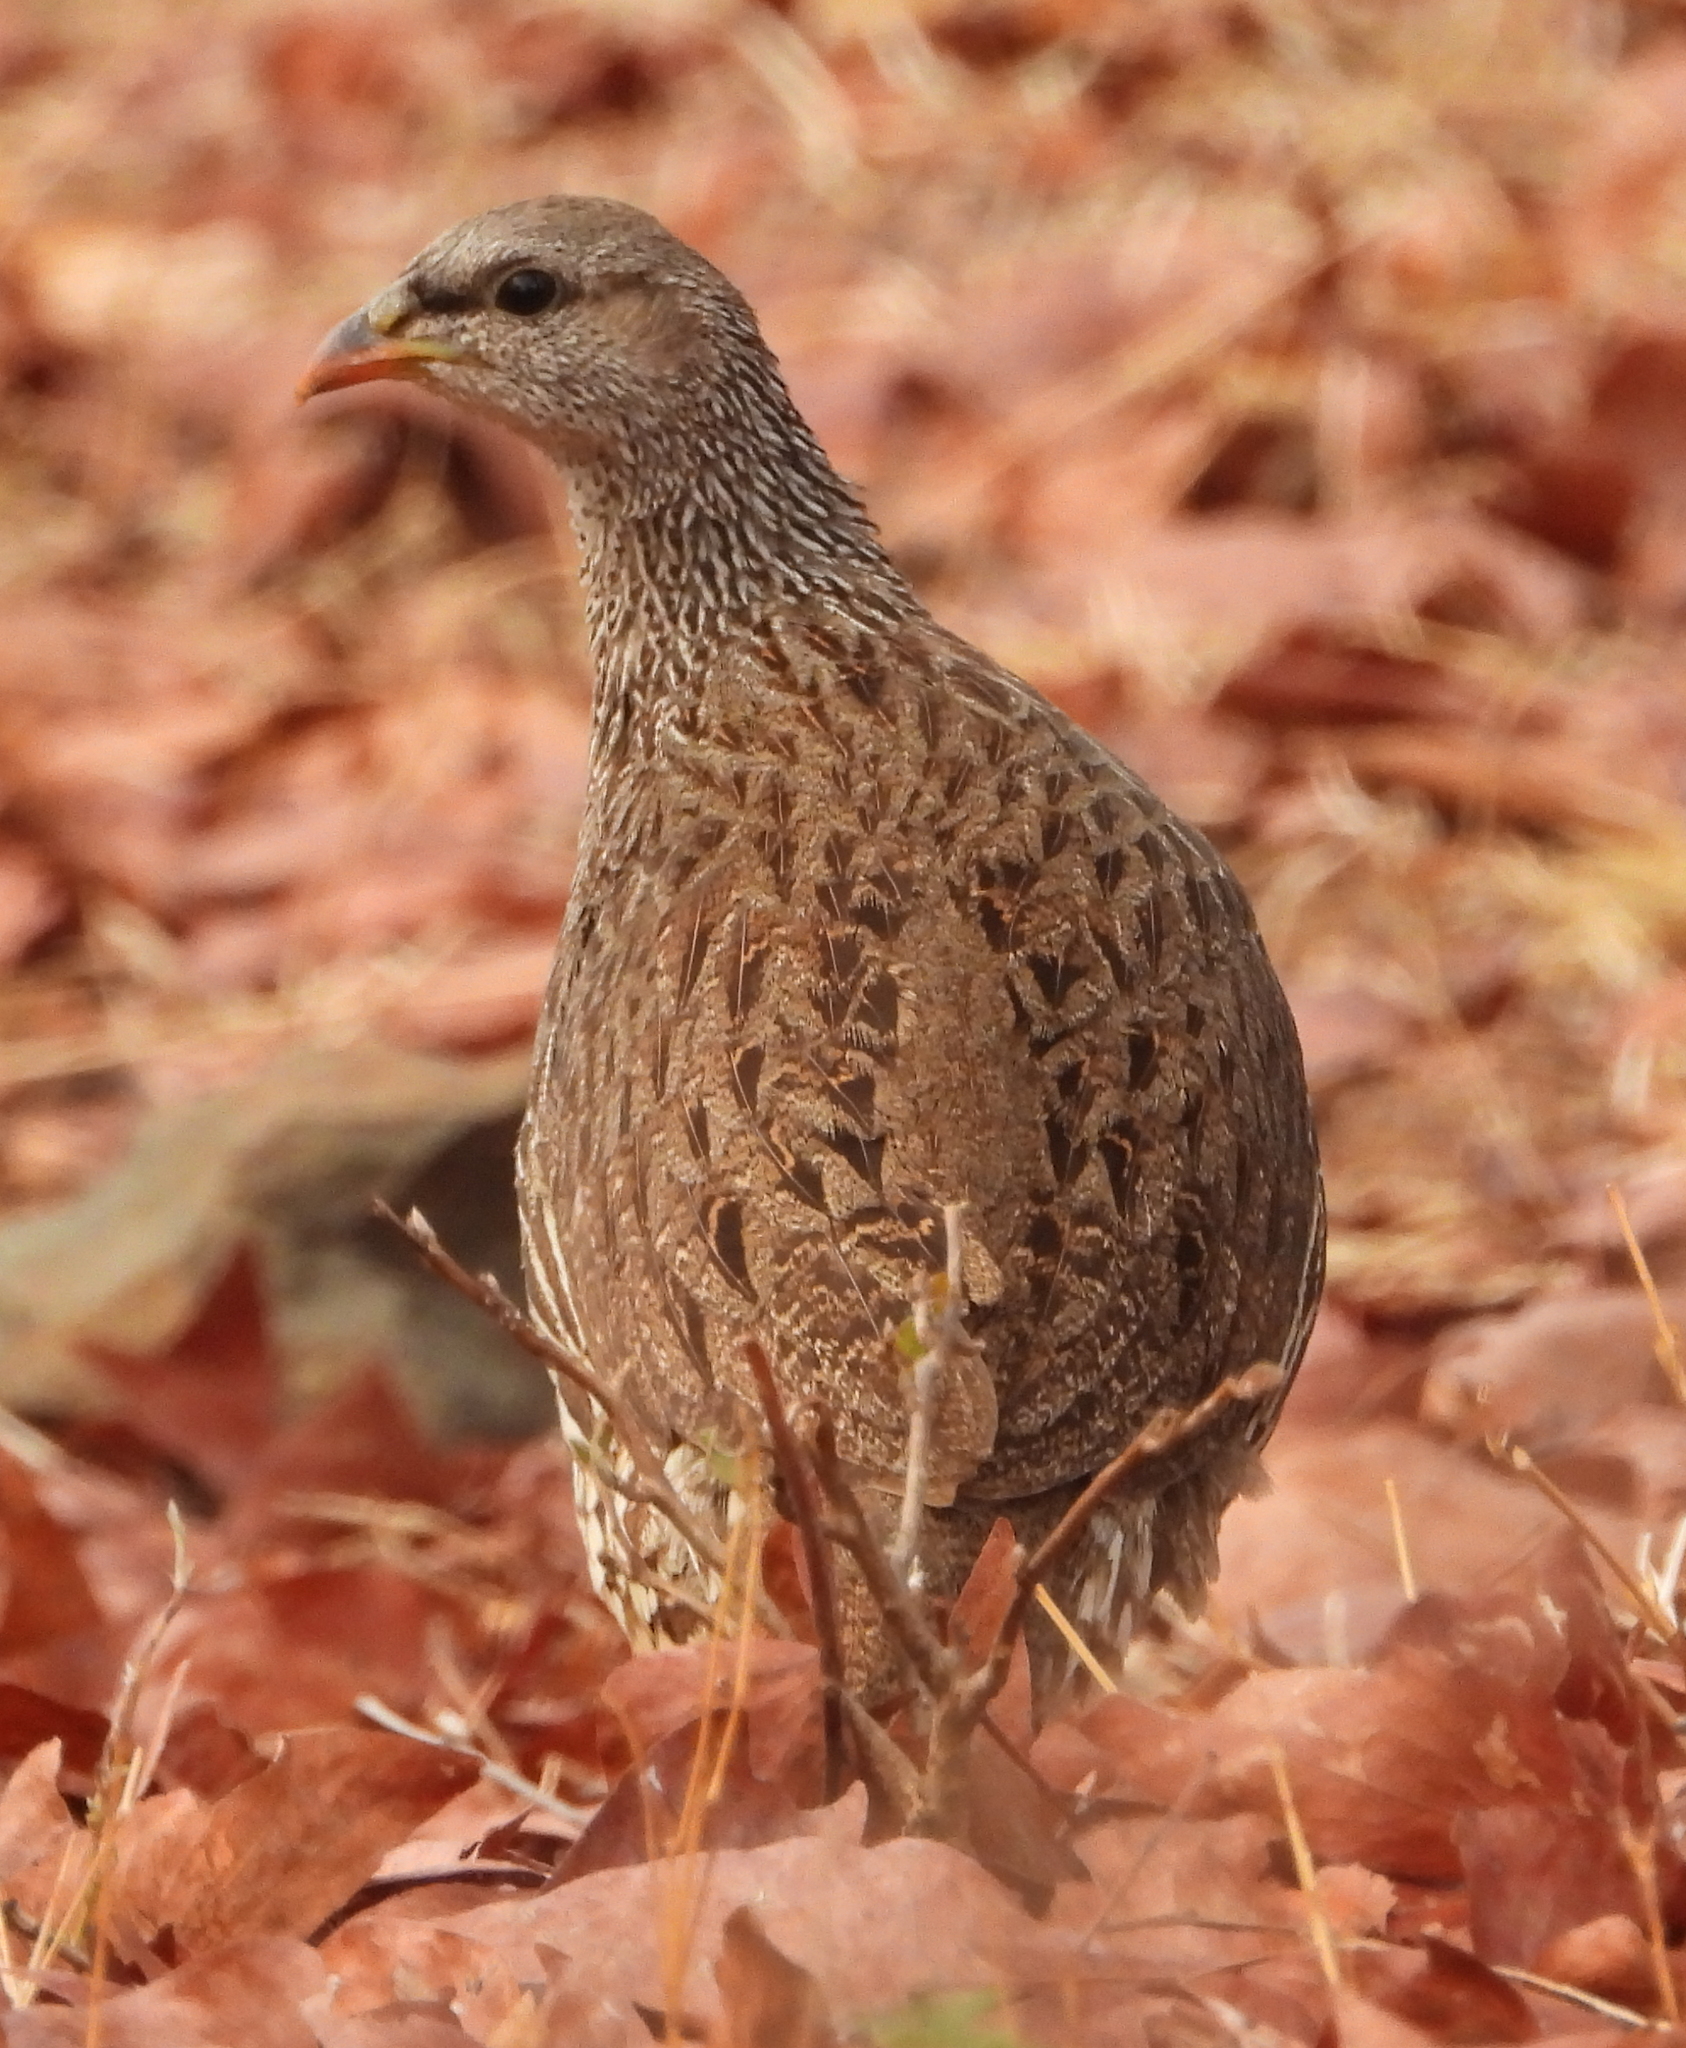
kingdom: Animalia
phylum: Chordata
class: Aves
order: Galliformes
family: Phasianidae
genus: Pternistis
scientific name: Pternistis natalensis
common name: Natal spurfowl
